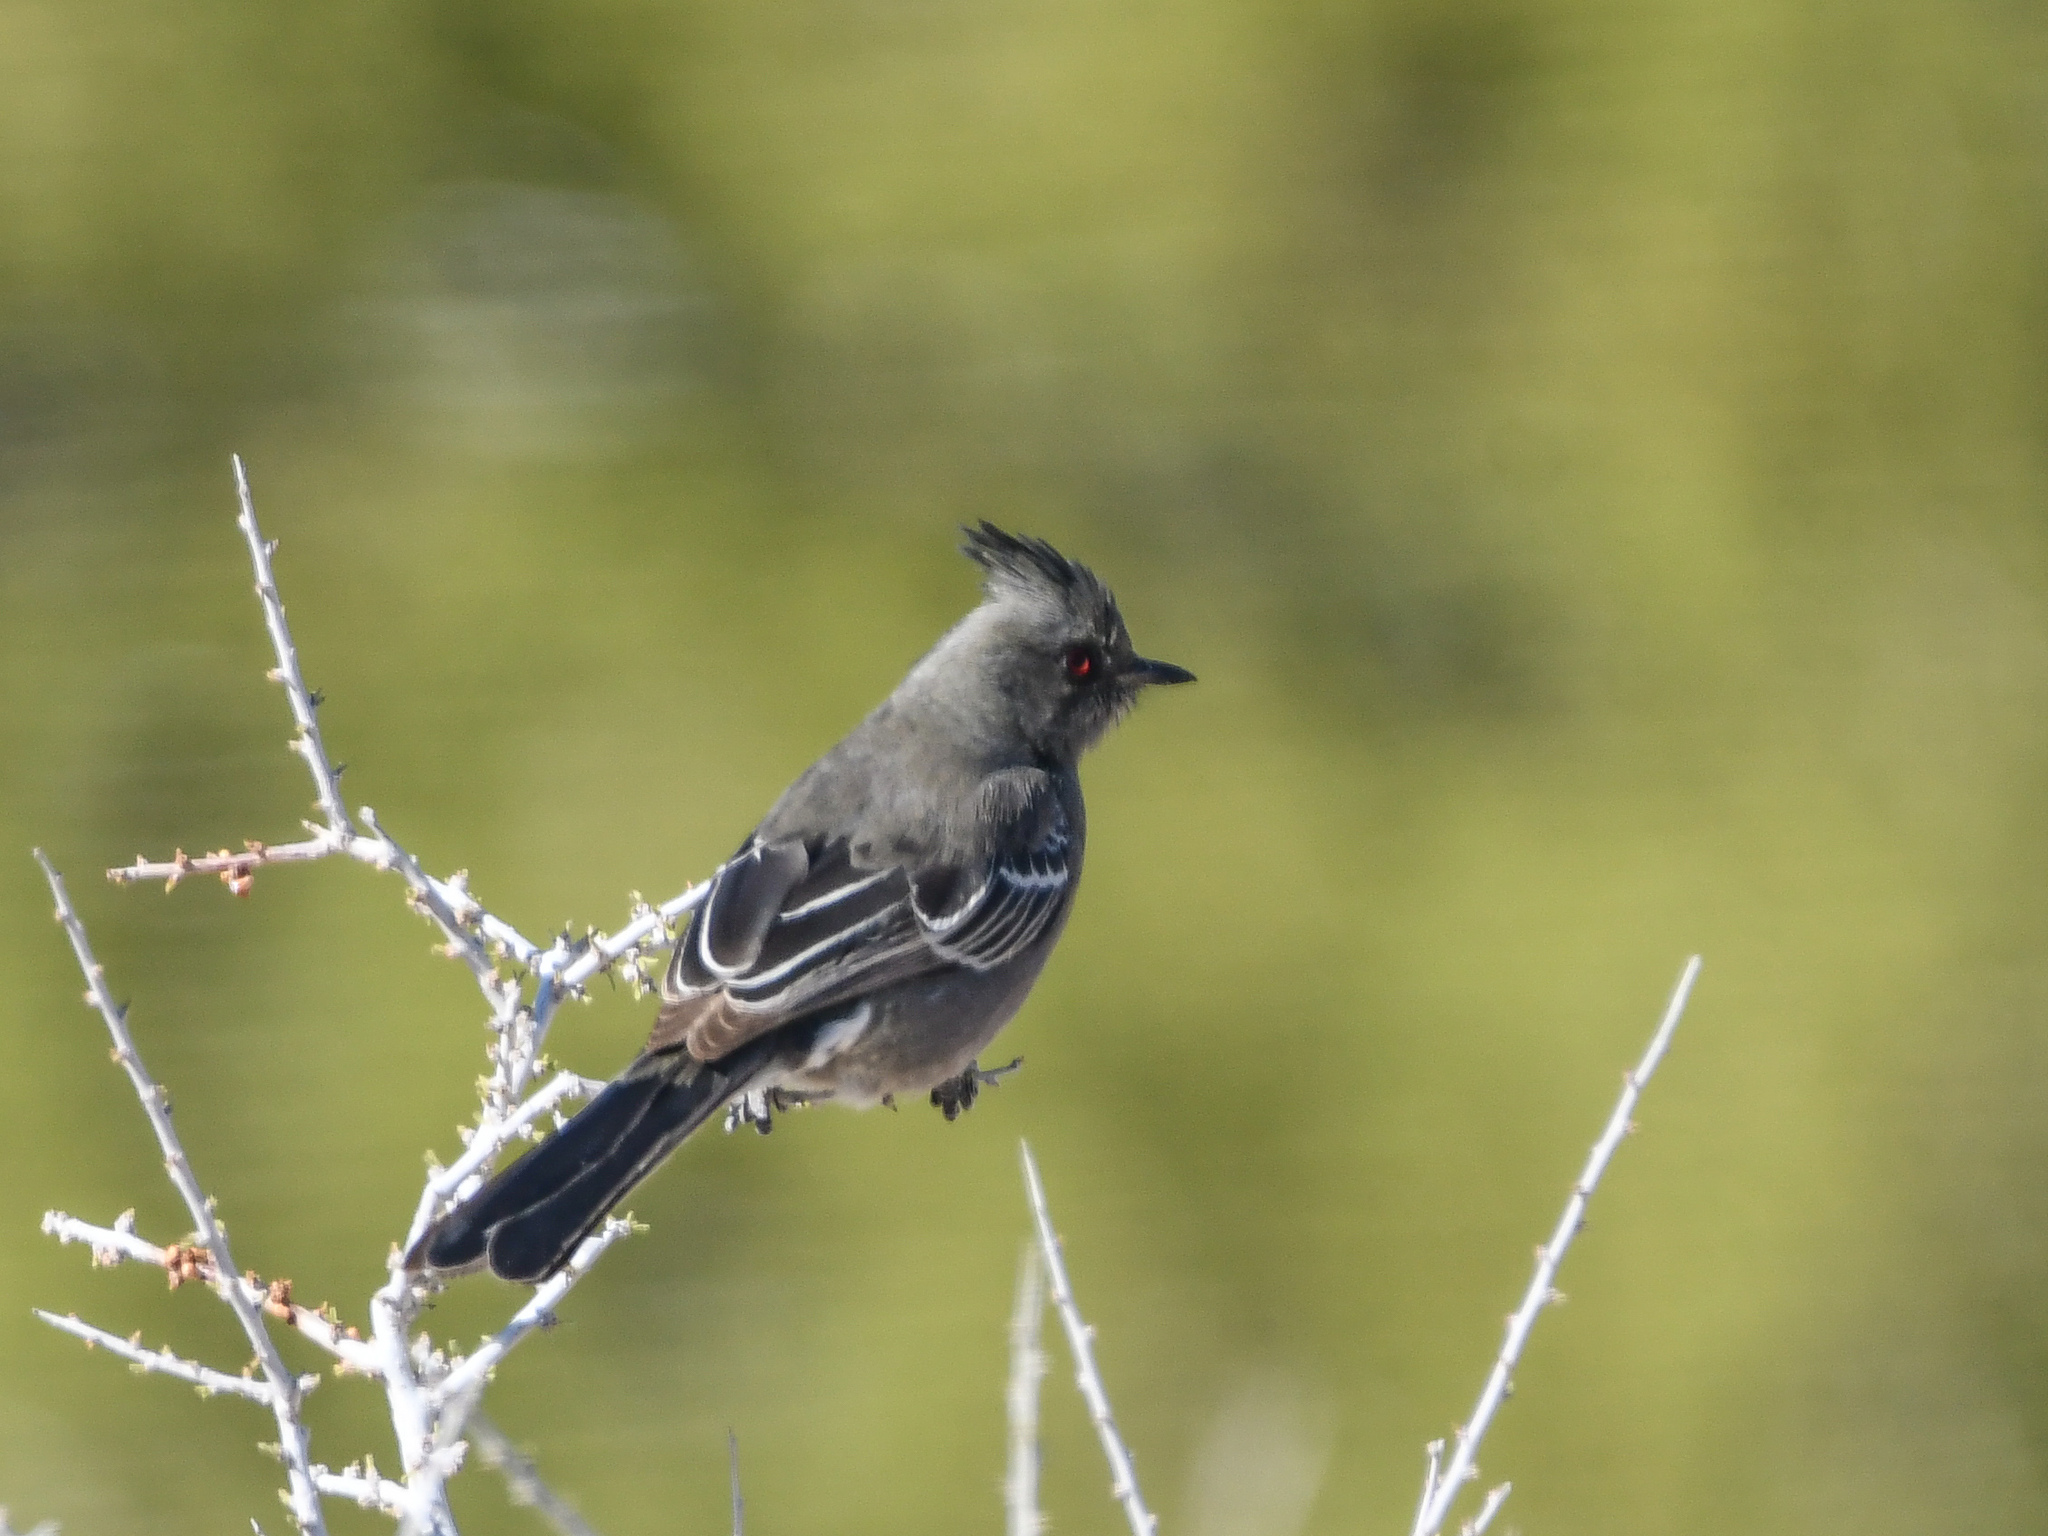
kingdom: Animalia
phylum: Chordata
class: Aves
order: Passeriformes
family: Ptilogonatidae
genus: Phainopepla
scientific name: Phainopepla nitens
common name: Phainopepla
